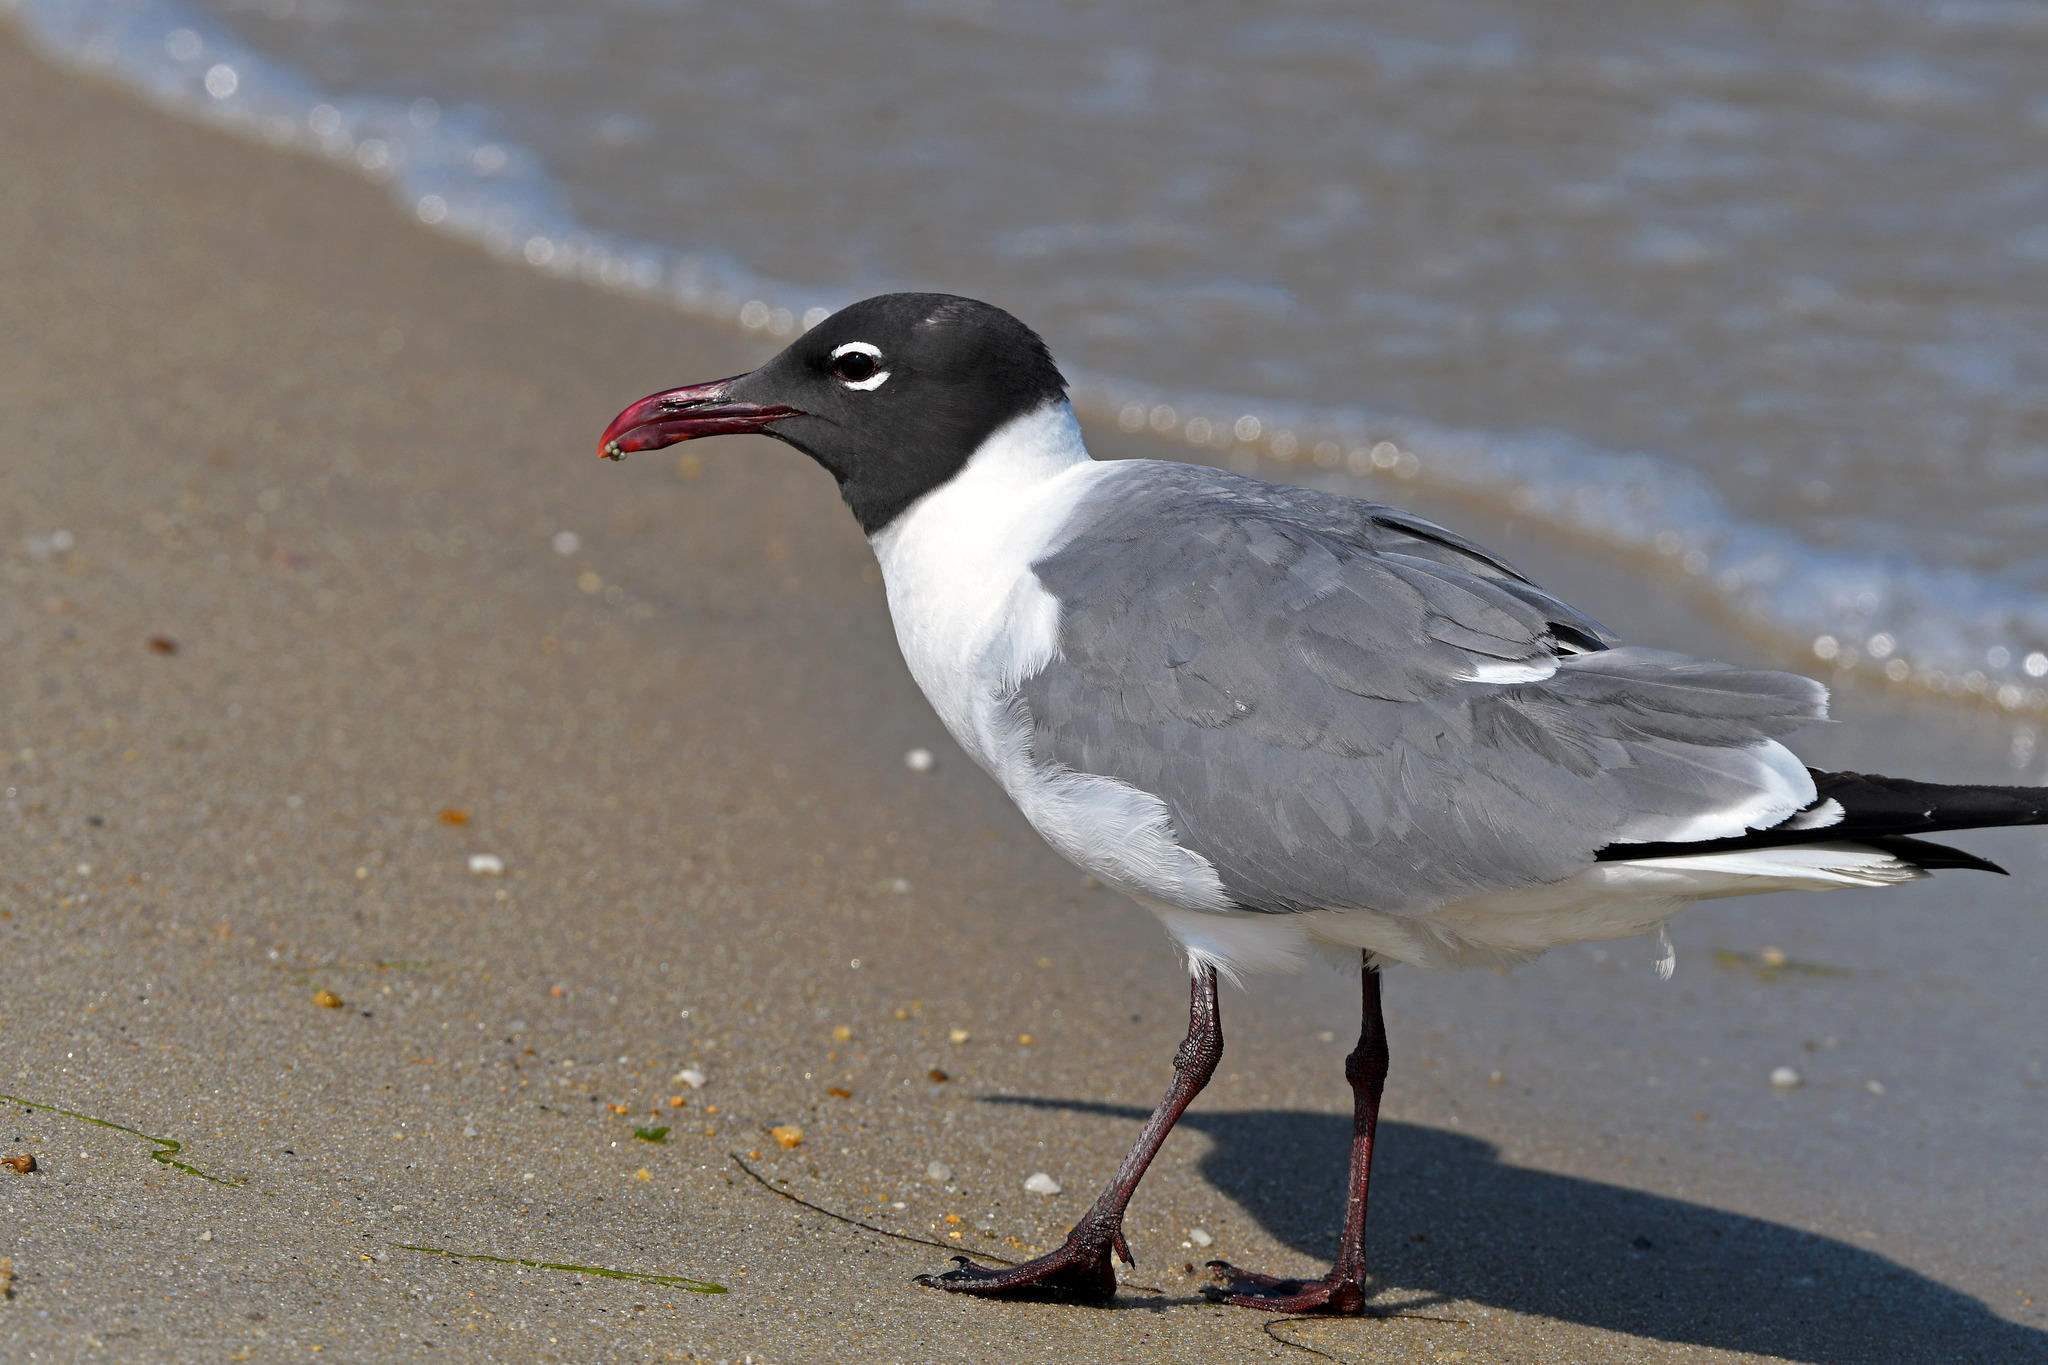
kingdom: Animalia
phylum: Chordata
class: Aves
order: Charadriiformes
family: Laridae
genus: Leucophaeus
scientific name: Leucophaeus atricilla
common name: Laughing gull
